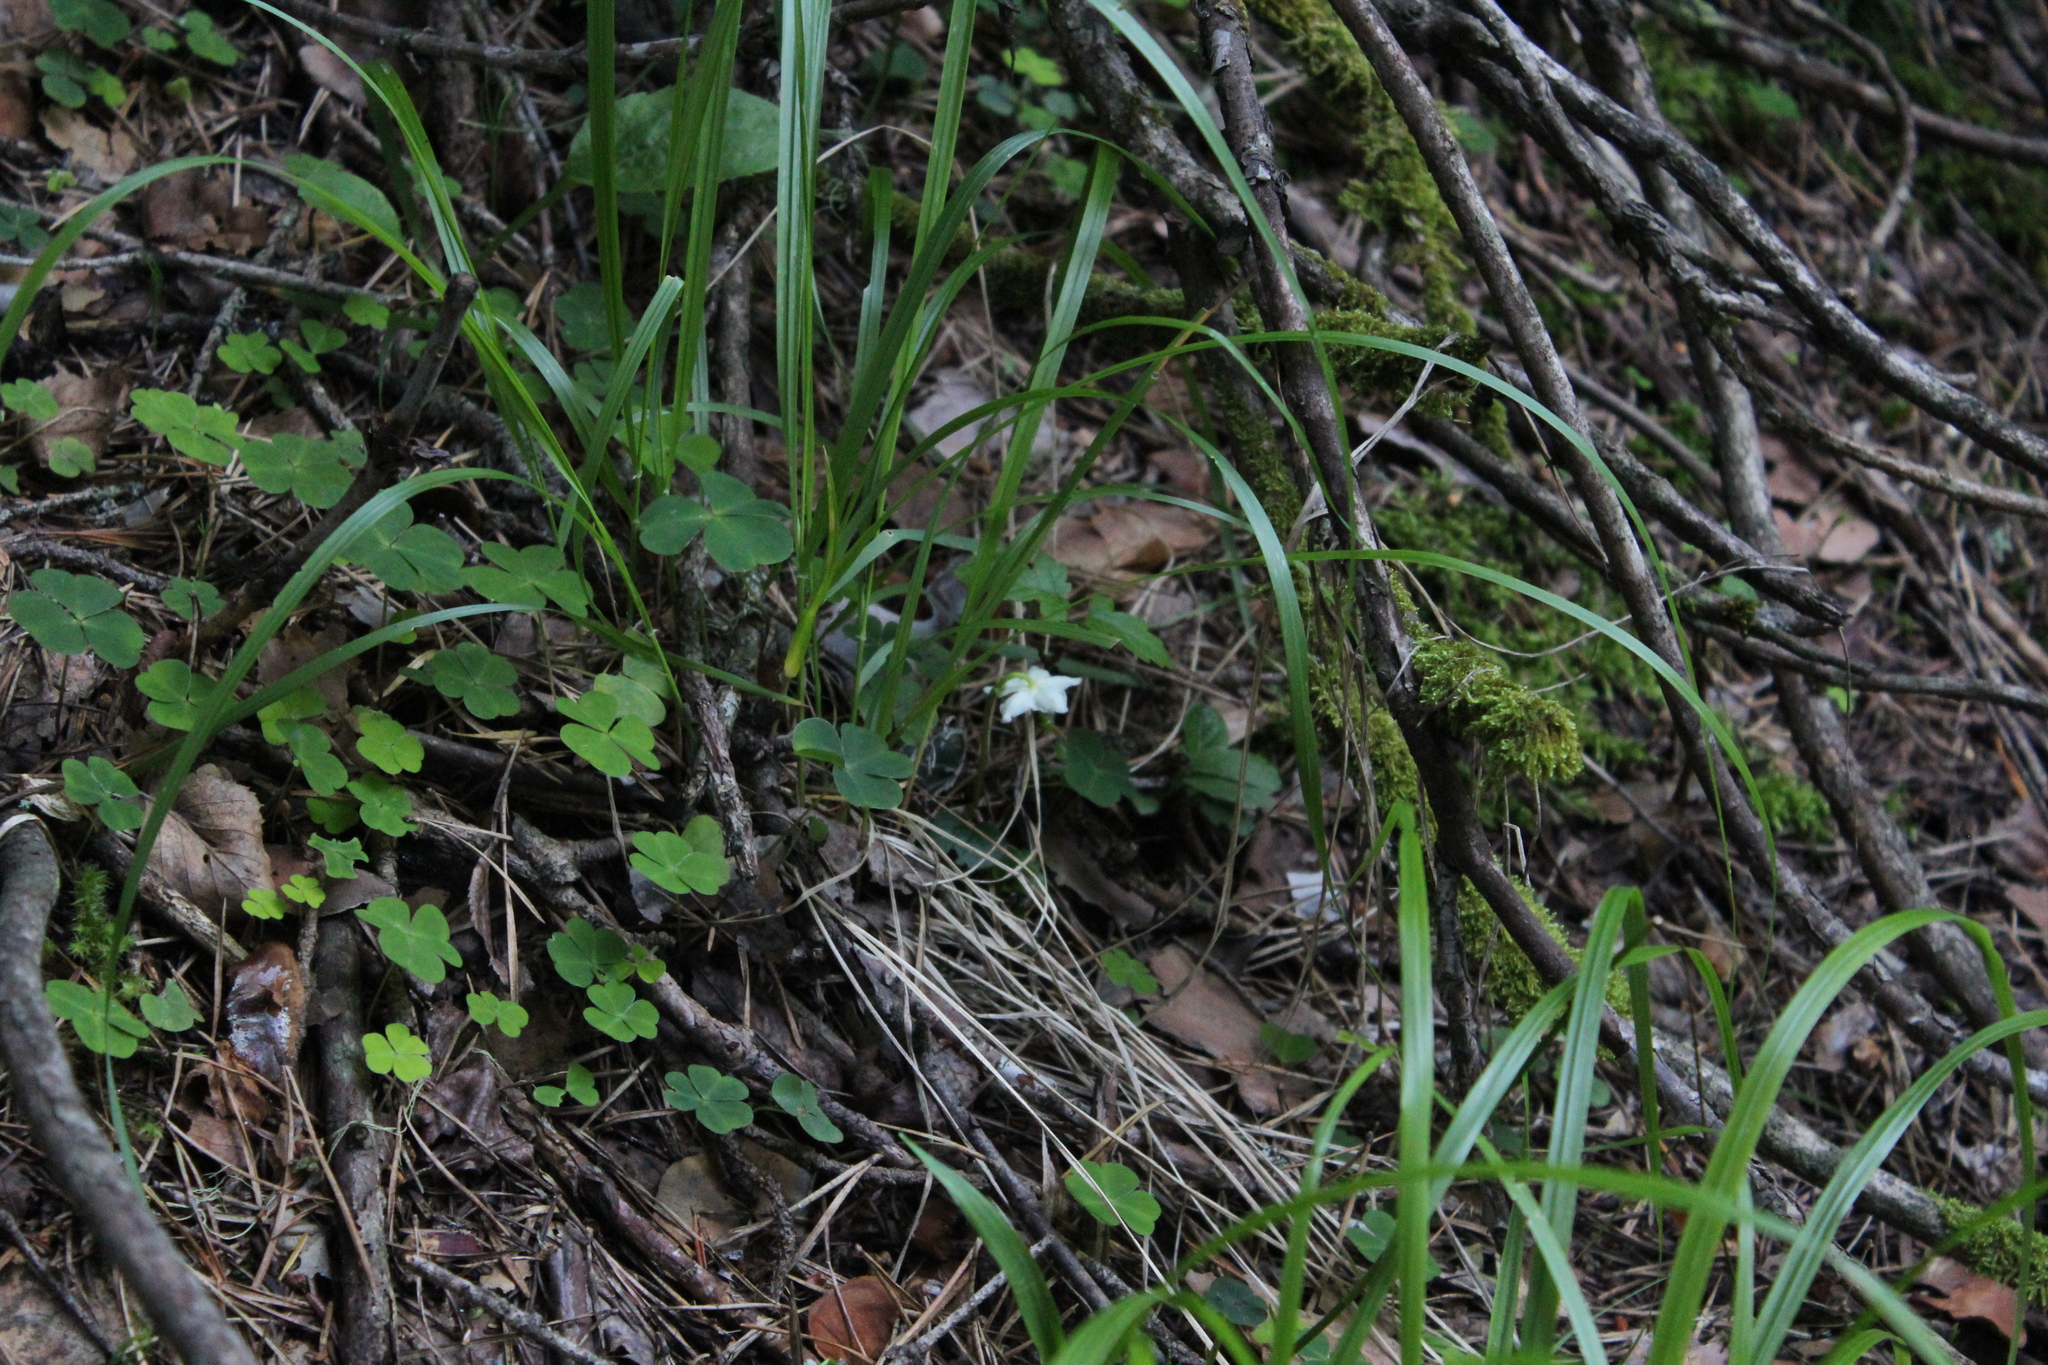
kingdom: Plantae
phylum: Tracheophyta
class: Magnoliopsida
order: Ericales
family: Ericaceae
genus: Moneses
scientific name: Moneses uniflora
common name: One-flowered wintergreen
